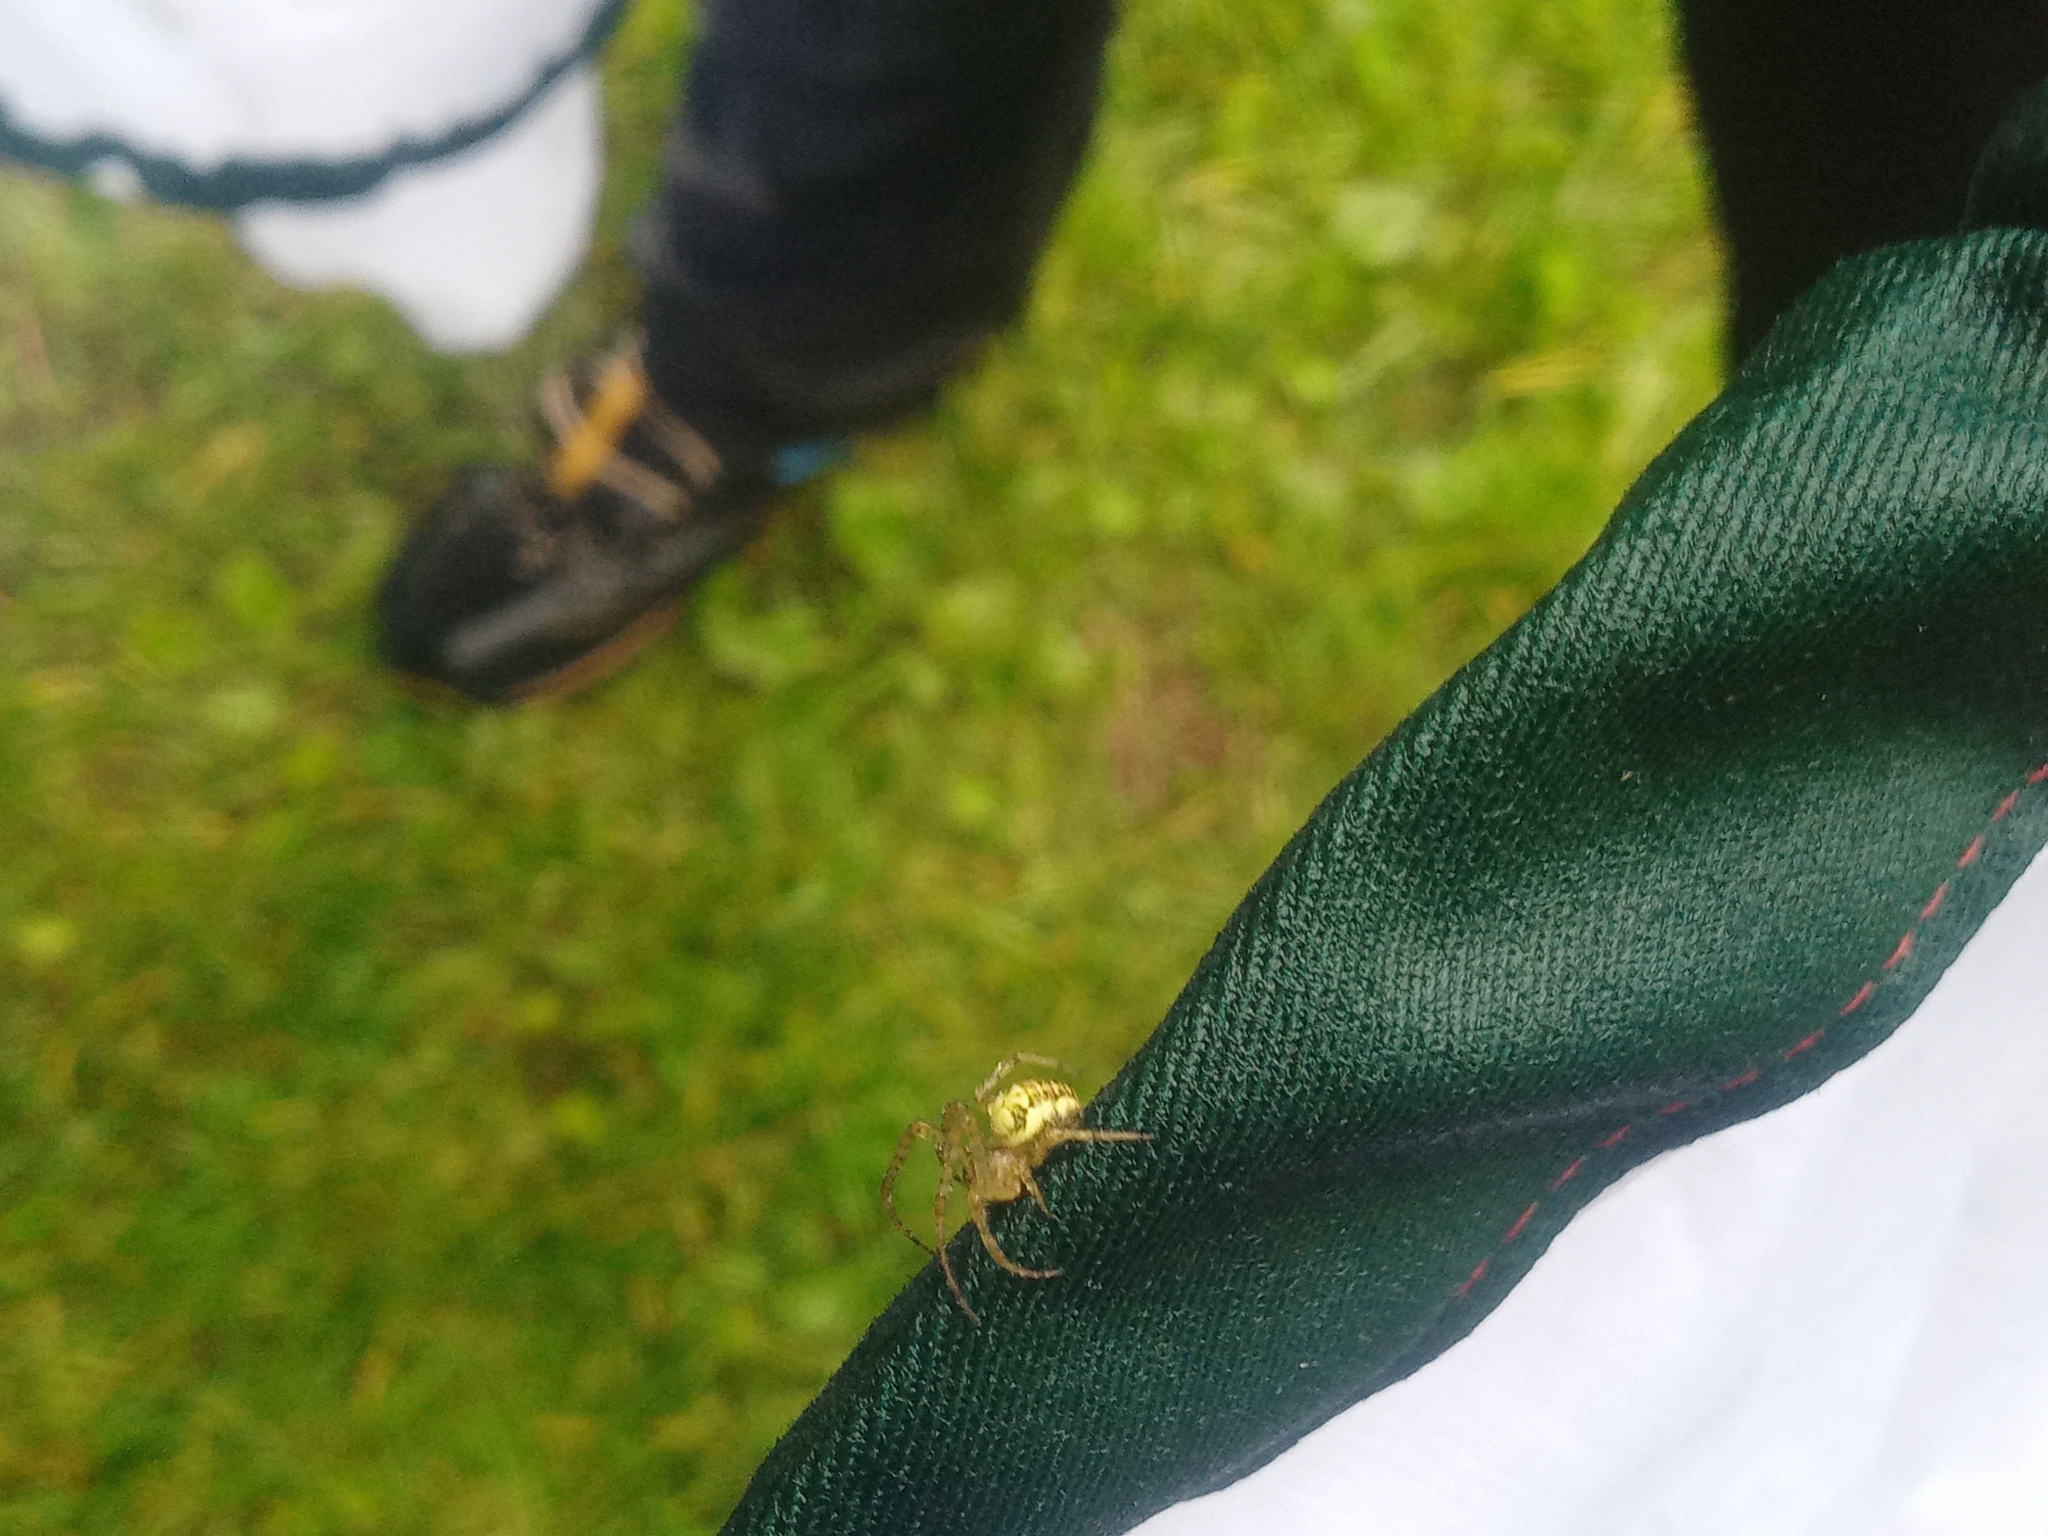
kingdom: Animalia
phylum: Arthropoda
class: Arachnida
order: Araneae
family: Tetragnathidae
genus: Metellina
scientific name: Metellina
